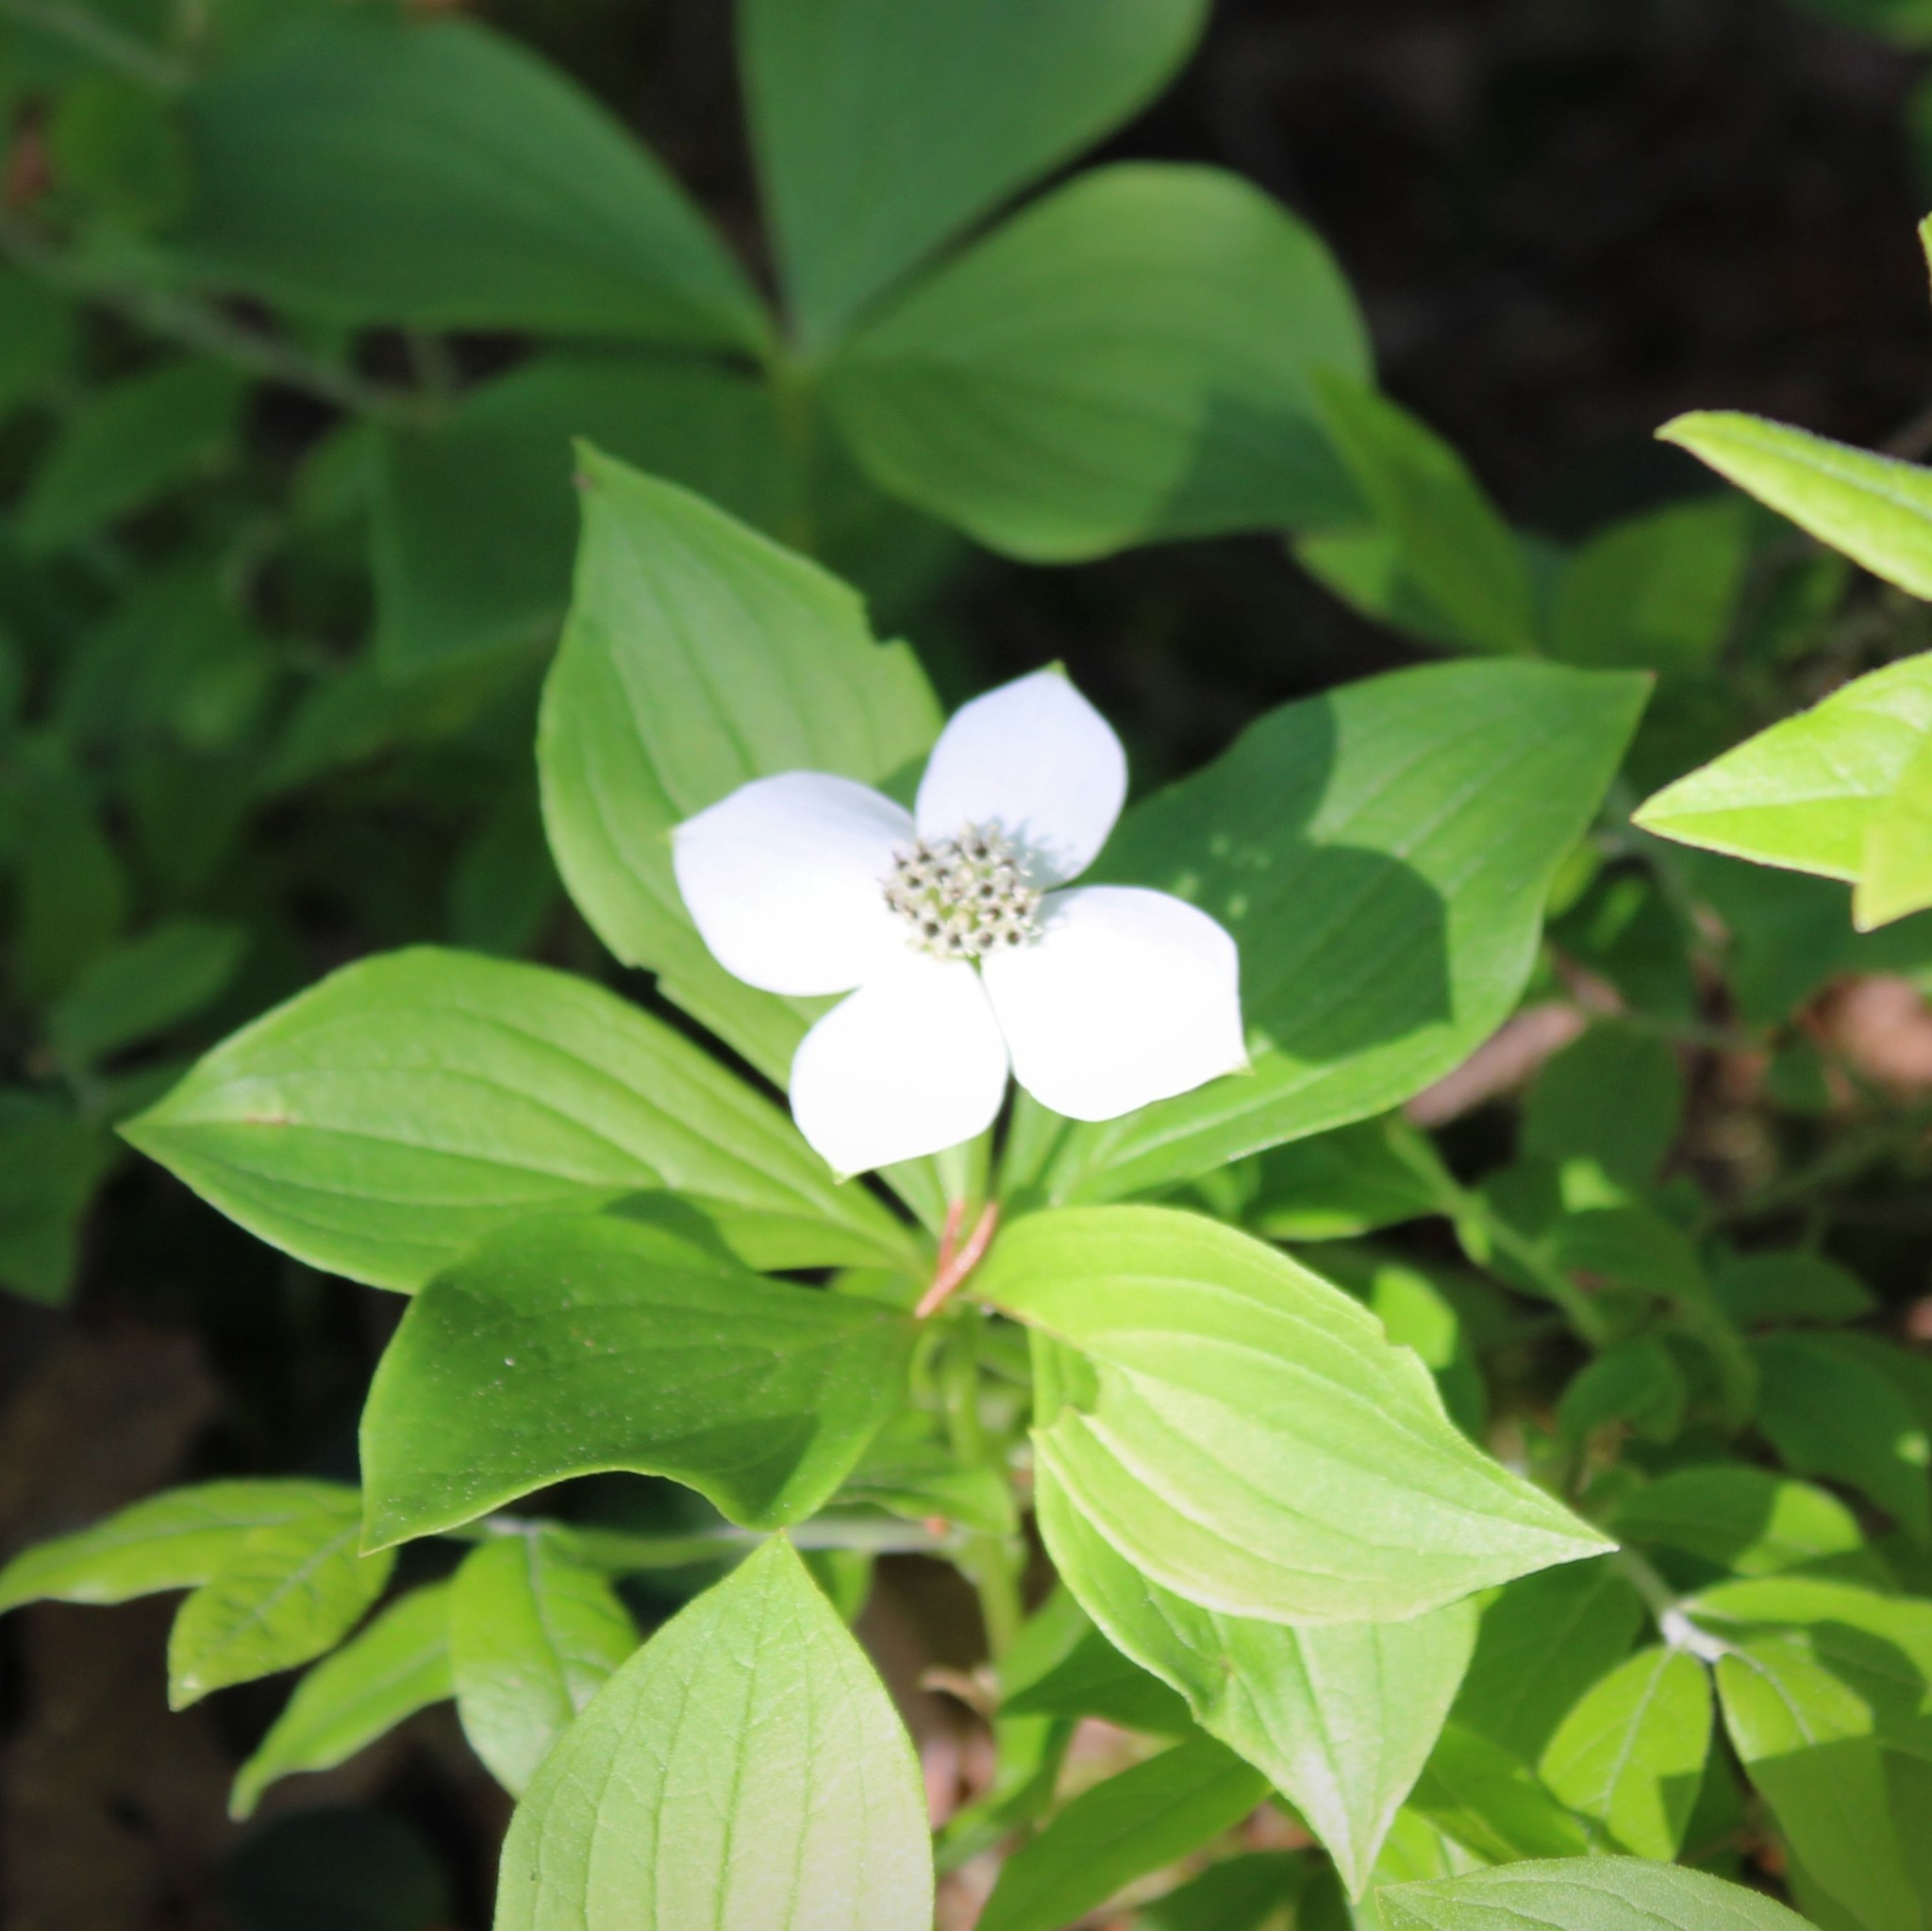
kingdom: Plantae
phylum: Tracheophyta
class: Magnoliopsida
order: Cornales
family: Cornaceae
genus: Cornus
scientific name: Cornus canadensis
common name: Creeping dogwood
